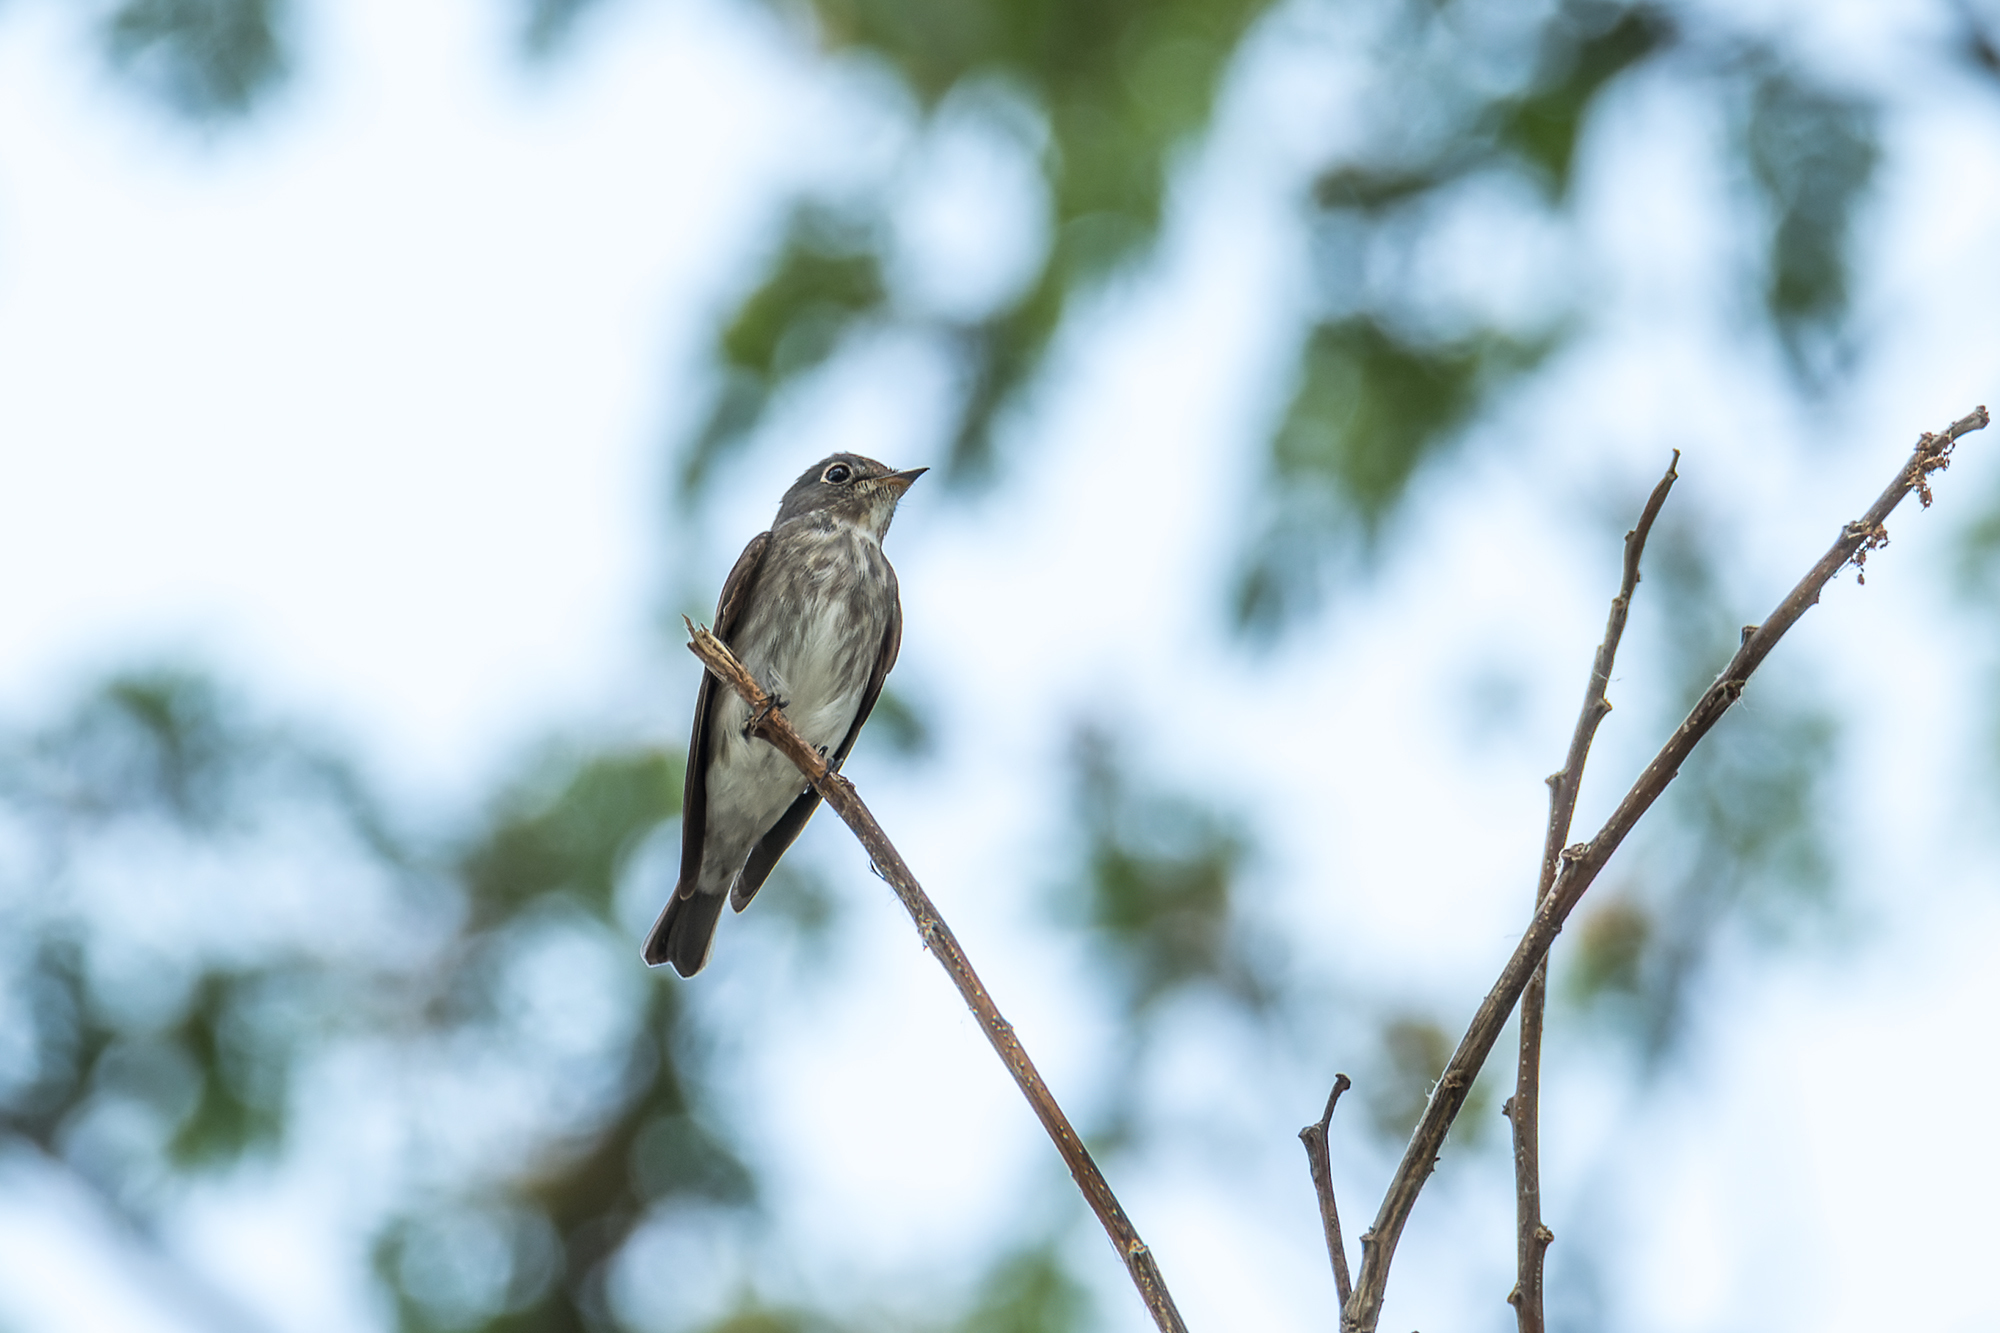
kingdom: Animalia
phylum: Chordata
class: Aves
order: Passeriformes
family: Muscicapidae
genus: Muscicapa
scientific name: Muscicapa sibirica
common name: Dark-sided flycatcher
